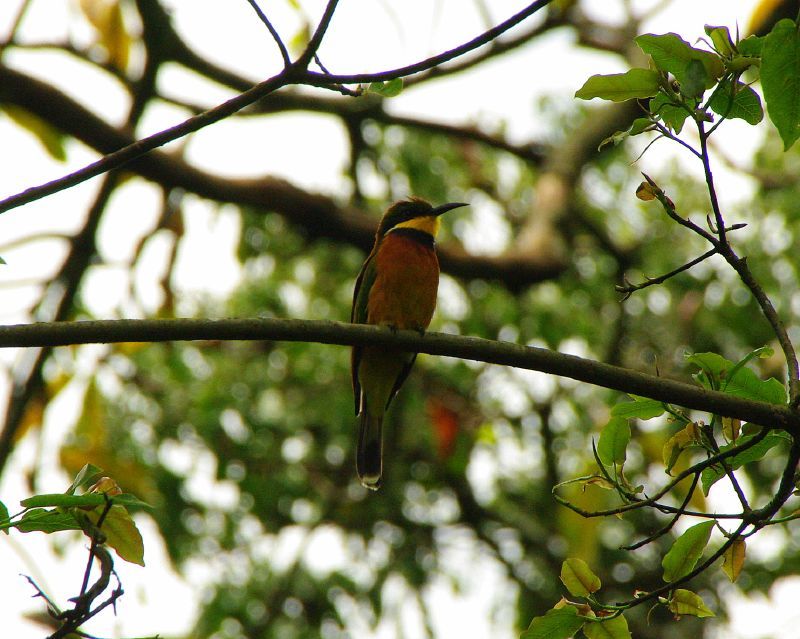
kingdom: Animalia
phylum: Chordata
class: Aves
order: Coraciiformes
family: Meropidae
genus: Merops
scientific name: Merops oreobates
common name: Cinnamon-chested bee-eater
